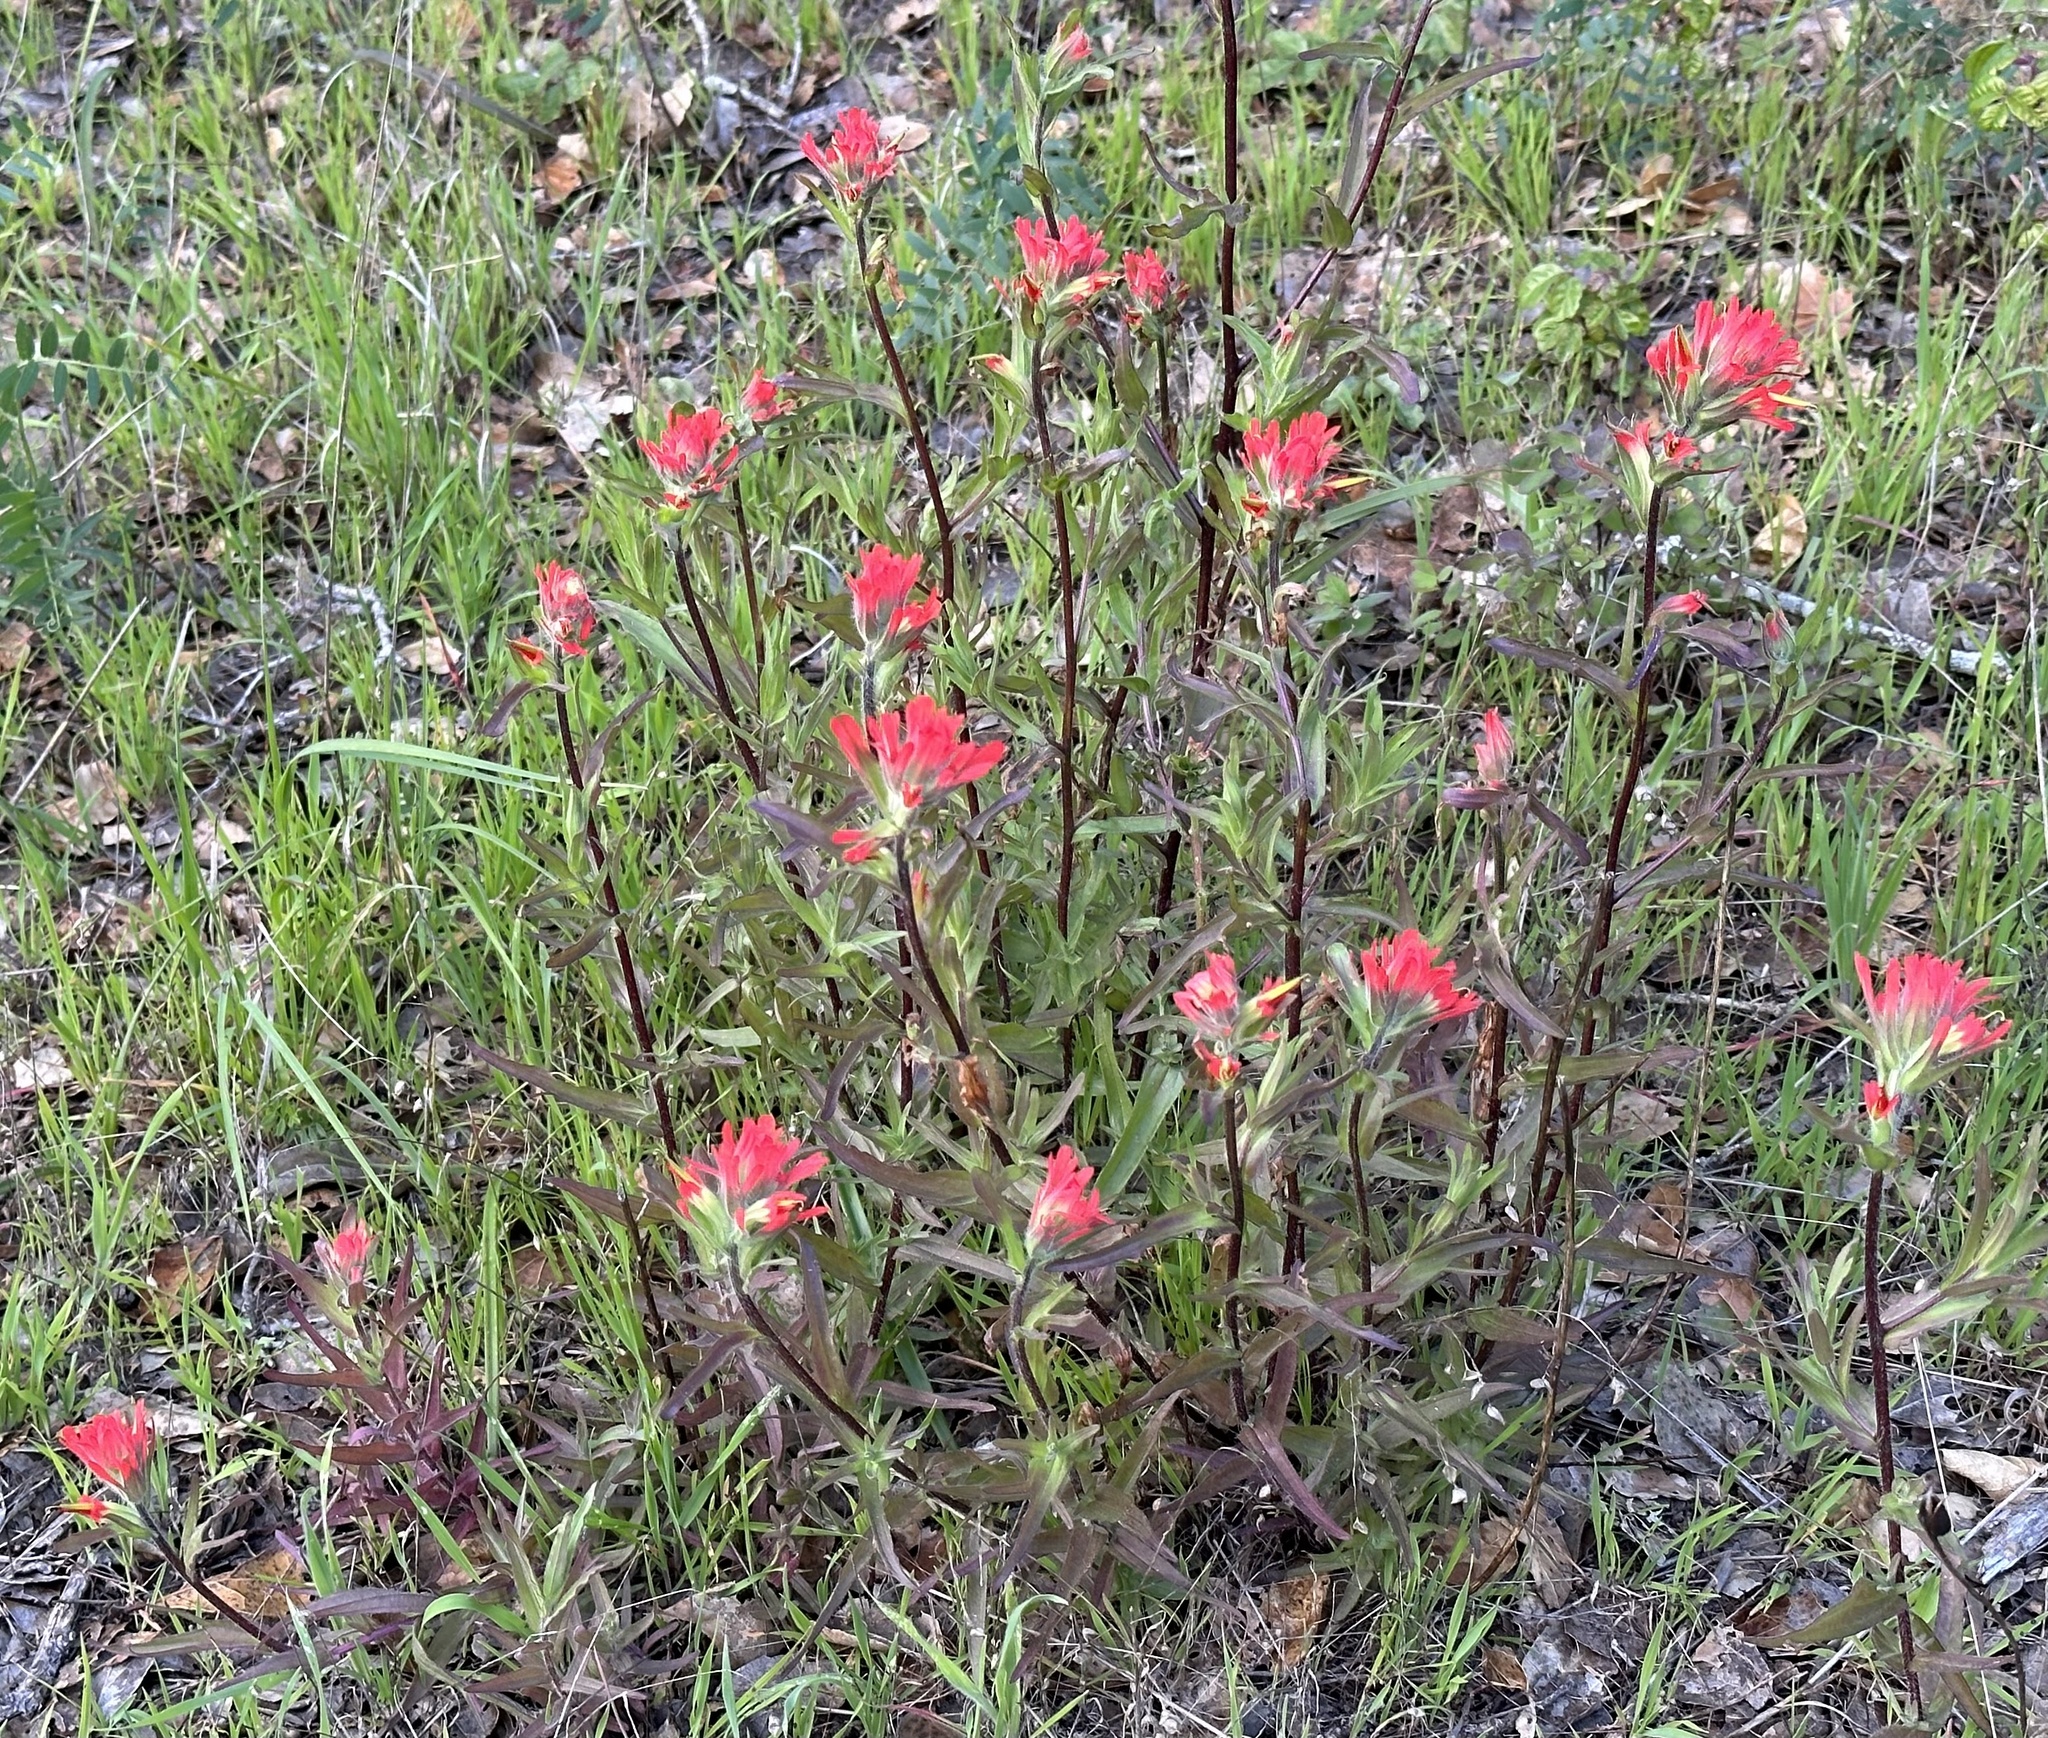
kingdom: Plantae
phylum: Tracheophyta
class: Magnoliopsida
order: Lamiales
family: Orobanchaceae
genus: Castilleja
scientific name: Castilleja affinis
